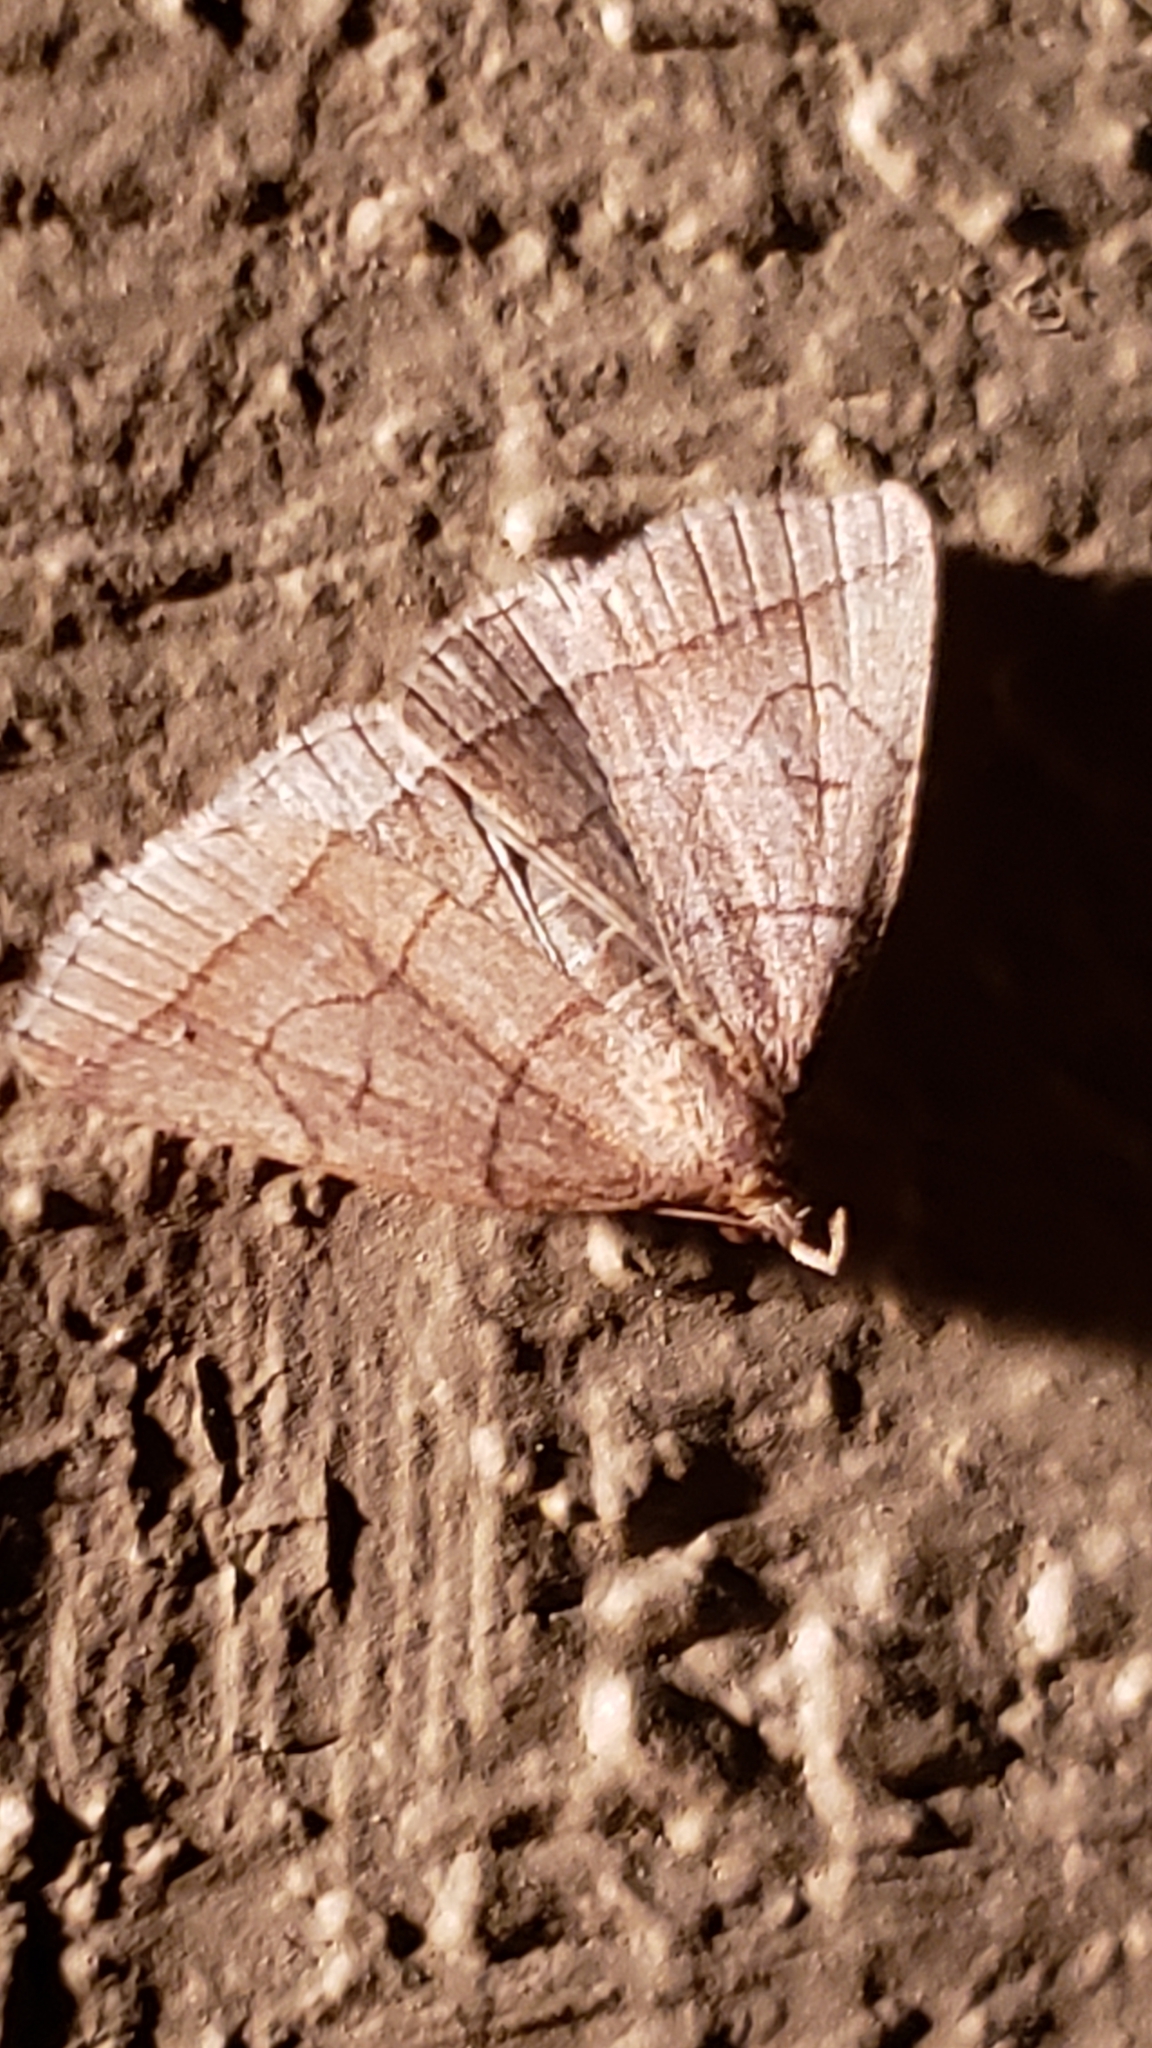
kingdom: Animalia
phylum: Arthropoda
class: Insecta
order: Lepidoptera
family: Erebidae
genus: Zanclognatha
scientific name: Zanclognatha cruralis
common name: Early fan-foot
